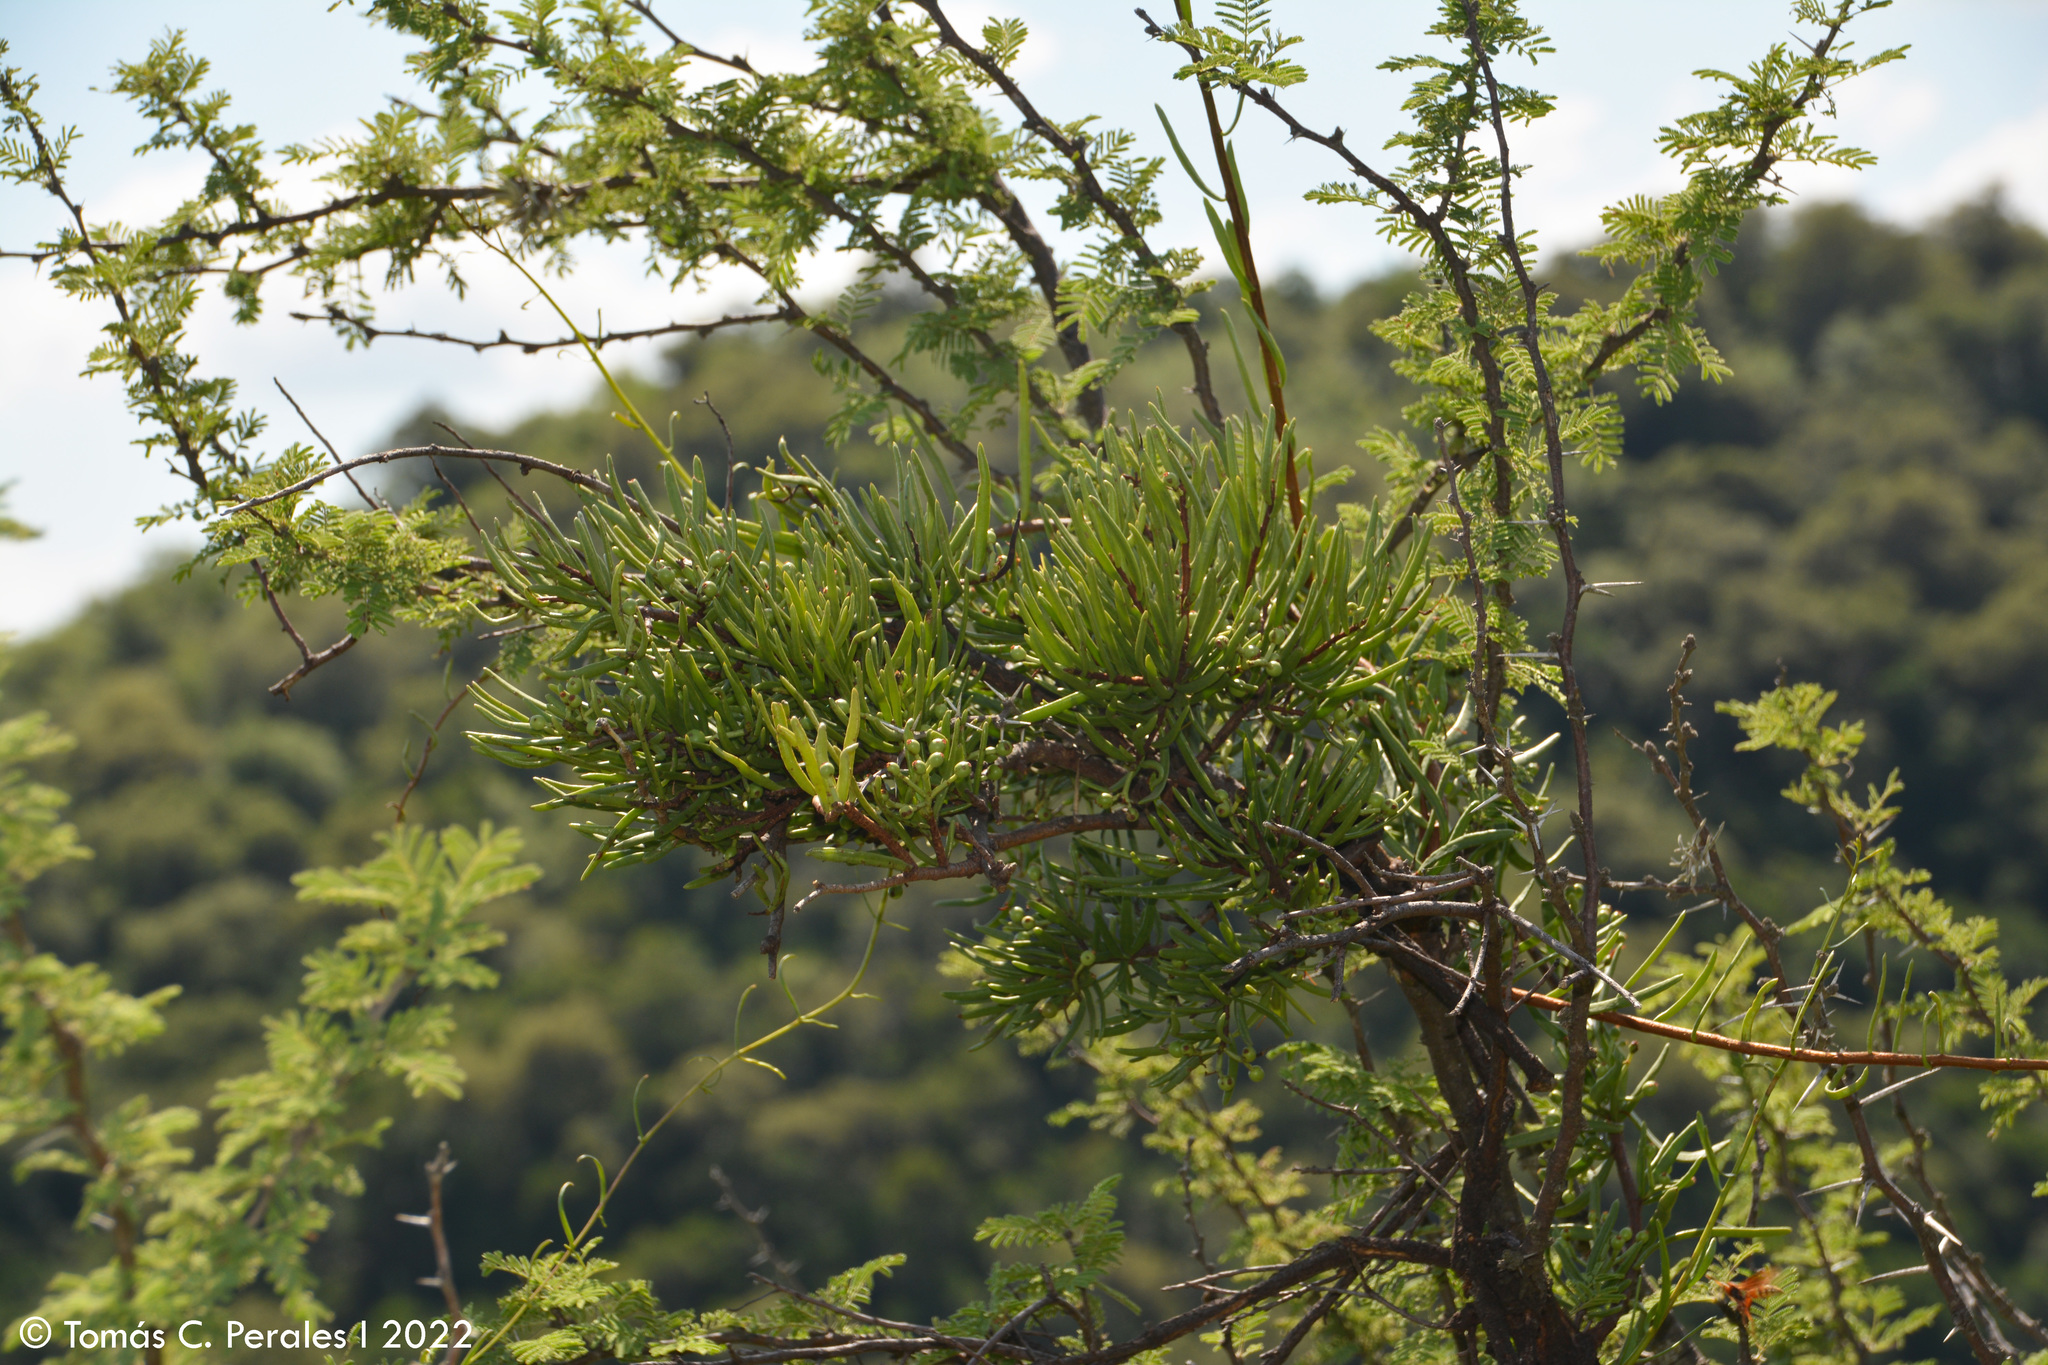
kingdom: Plantae
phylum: Tracheophyta
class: Magnoliopsida
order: Santalales
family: Loranthaceae
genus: Tripodanthus
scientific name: Tripodanthus flagellaris
